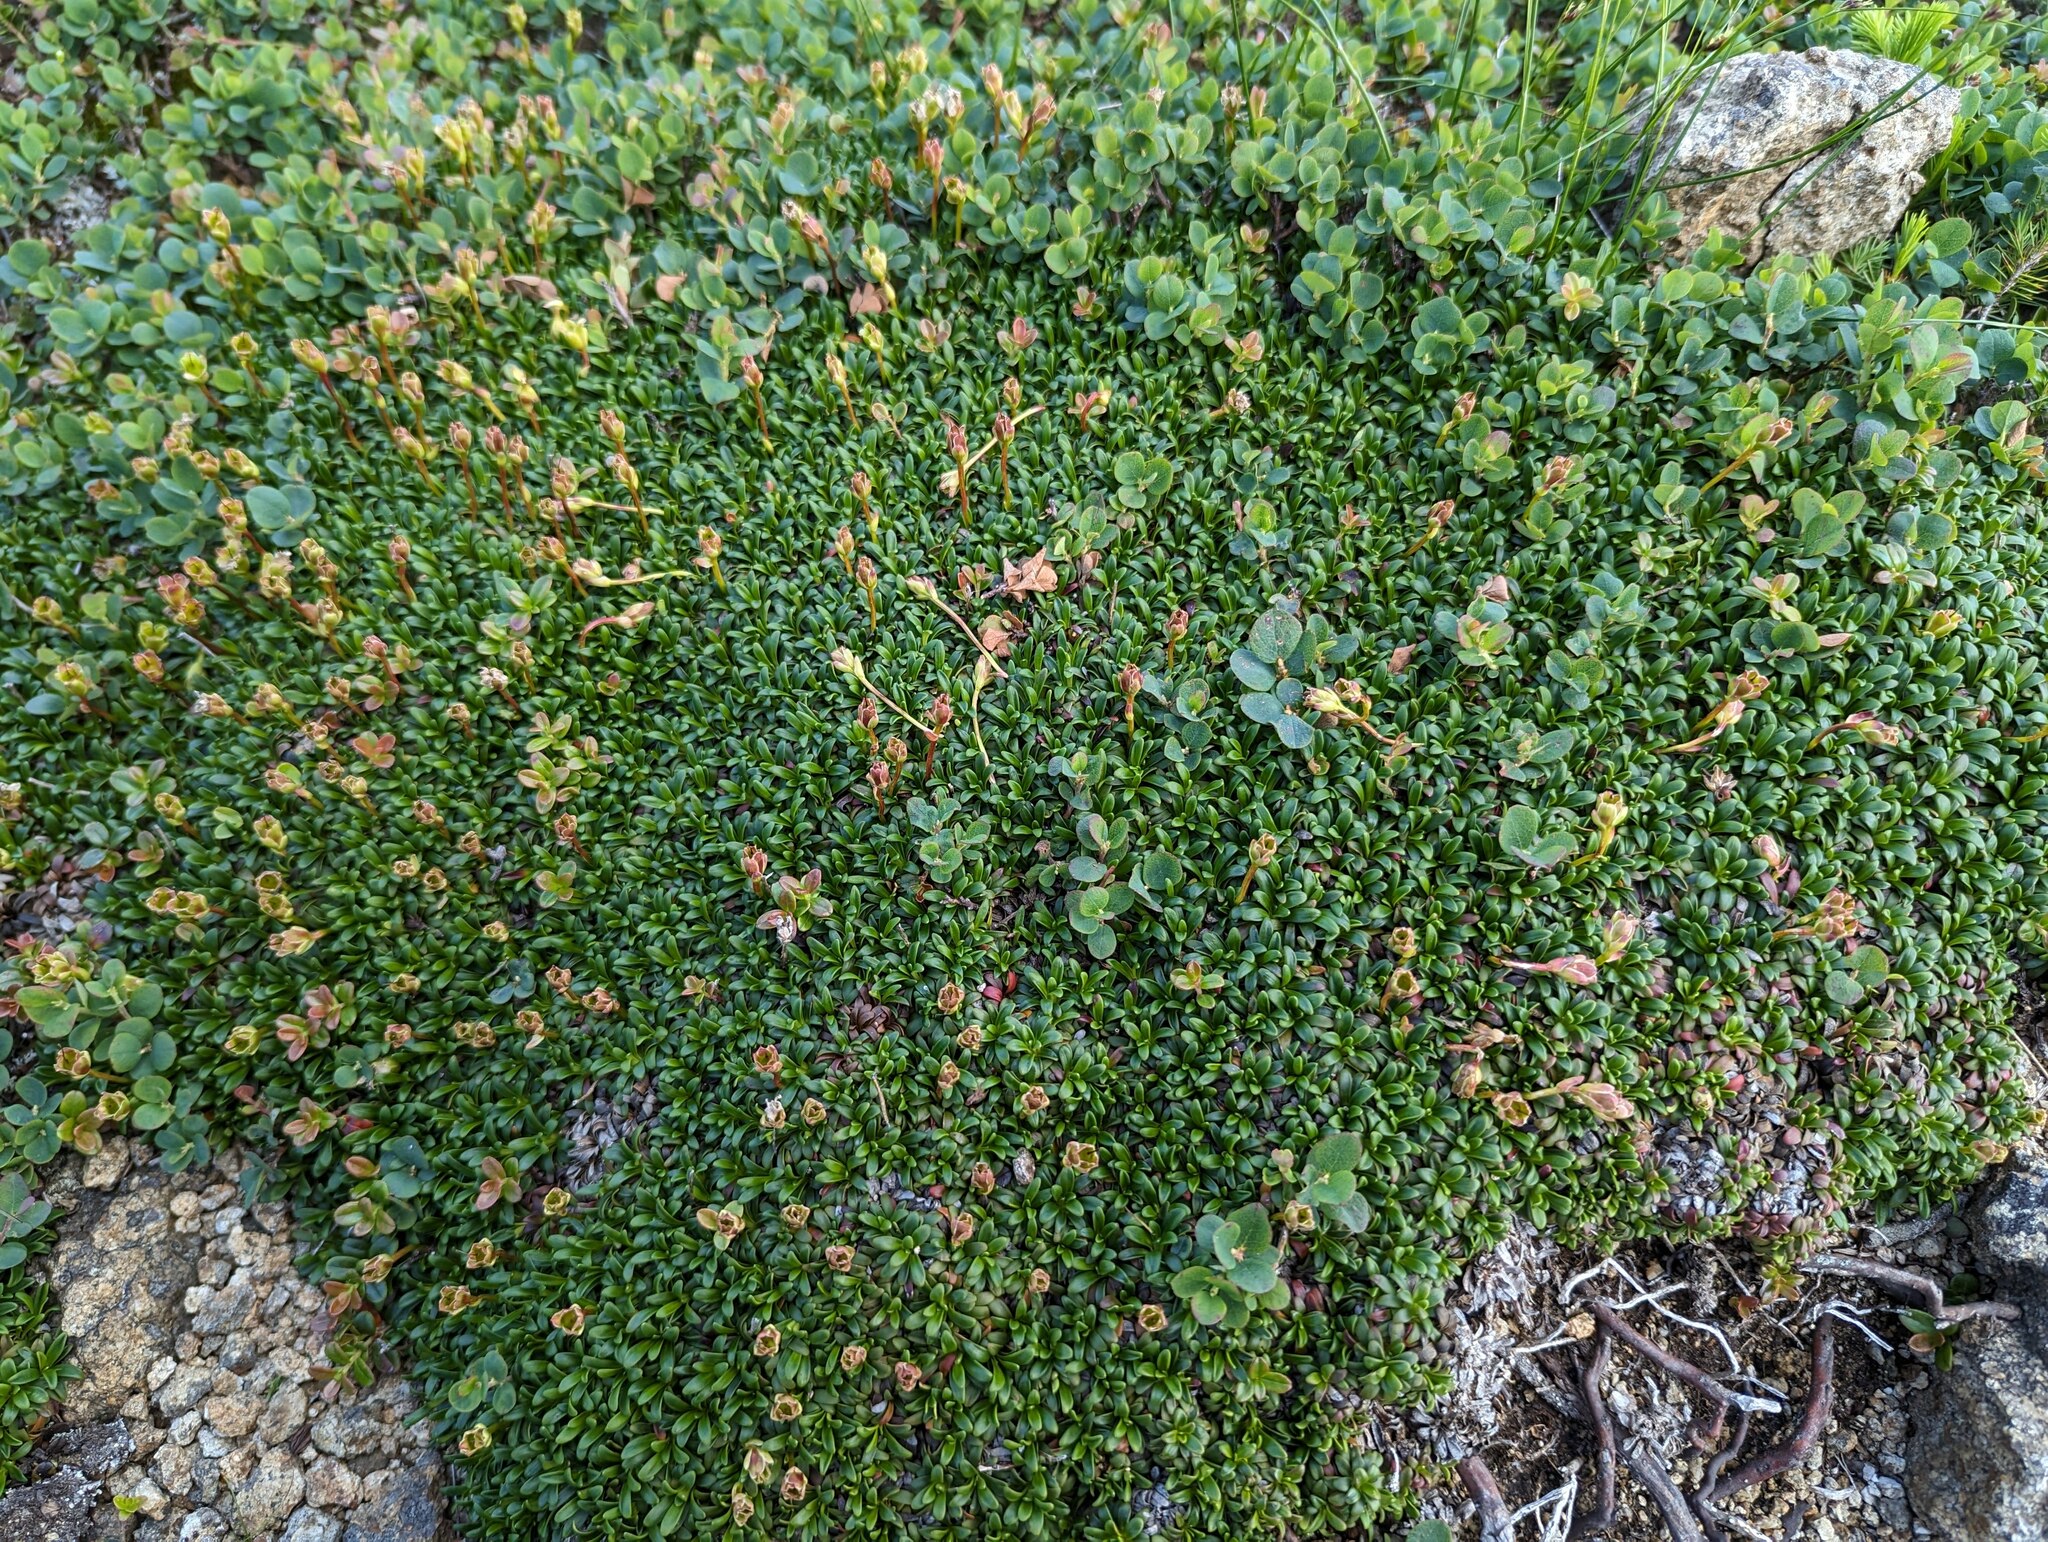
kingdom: Plantae
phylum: Tracheophyta
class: Magnoliopsida
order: Ericales
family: Diapensiaceae
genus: Diapensia
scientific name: Diapensia lapponica
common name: Diapensia
